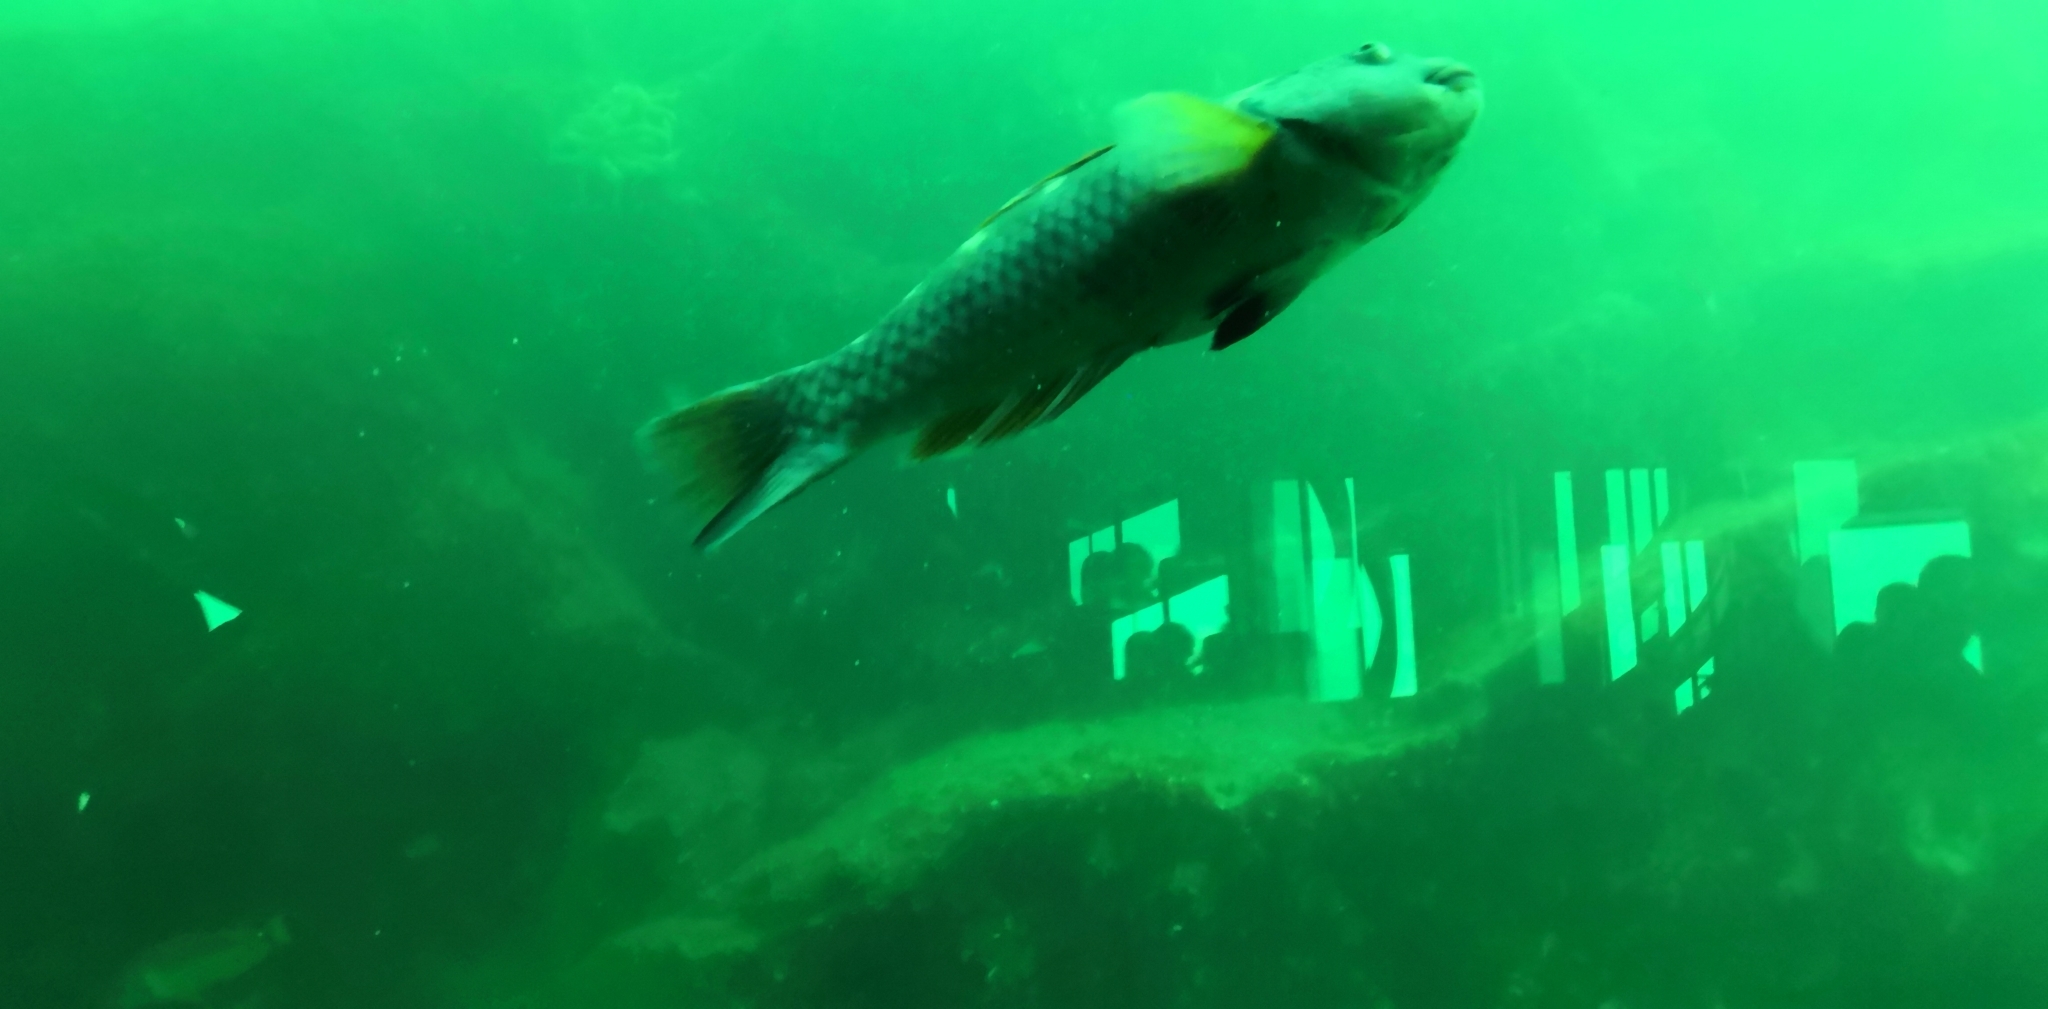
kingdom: Animalia
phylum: Chordata
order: Perciformes
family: Labridae
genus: Notolabrus
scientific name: Notolabrus fucicola
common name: Banded parrotfish
